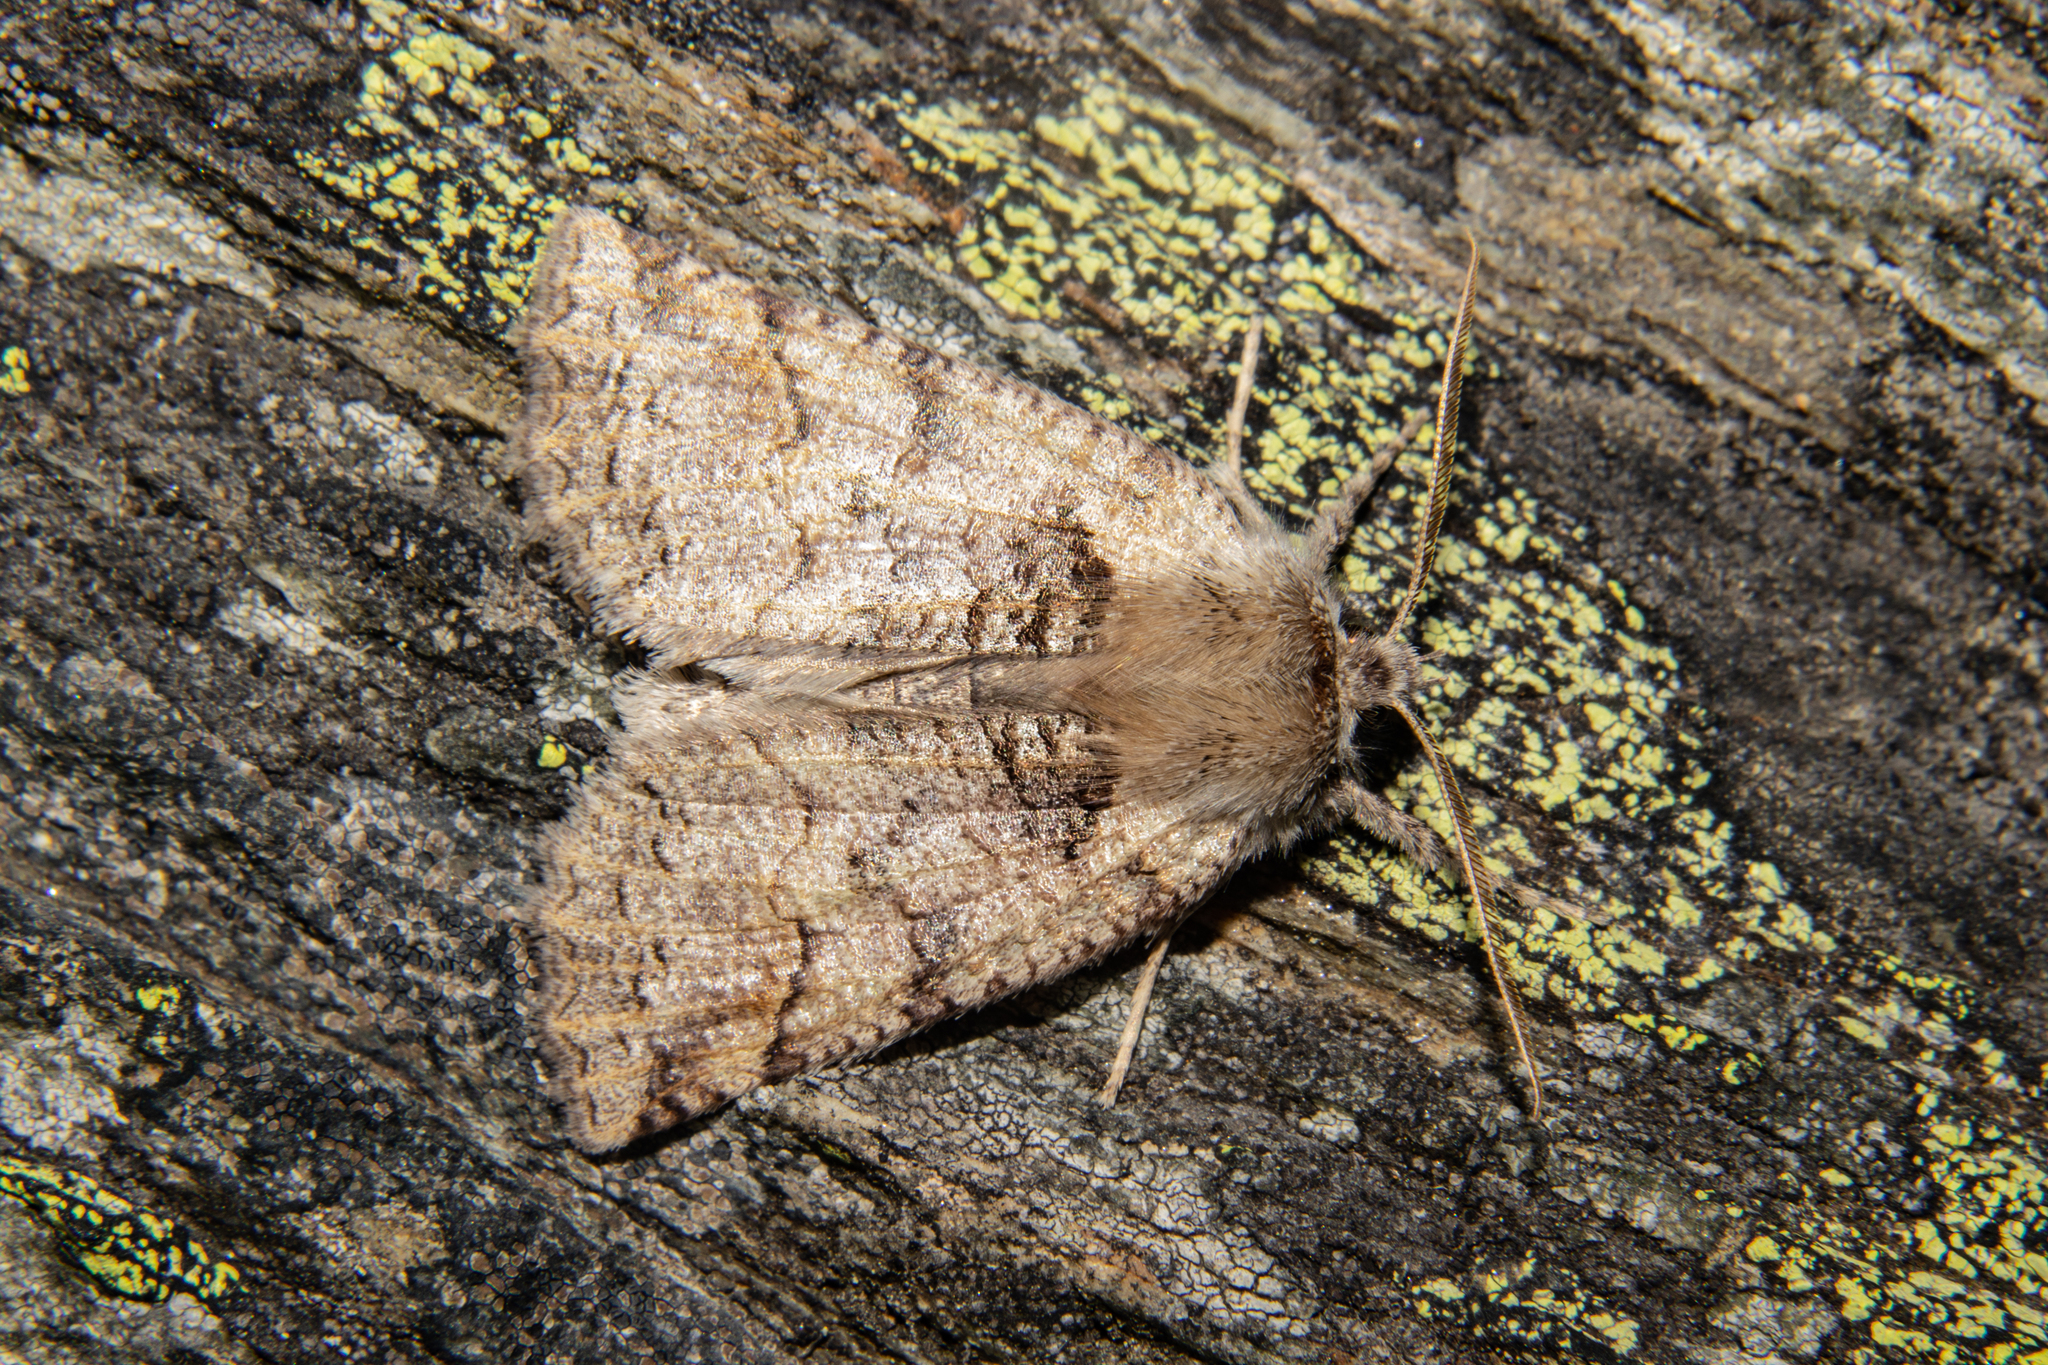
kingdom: Animalia
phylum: Arthropoda
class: Insecta
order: Lepidoptera
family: Geometridae
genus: Declana
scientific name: Declana floccosa
